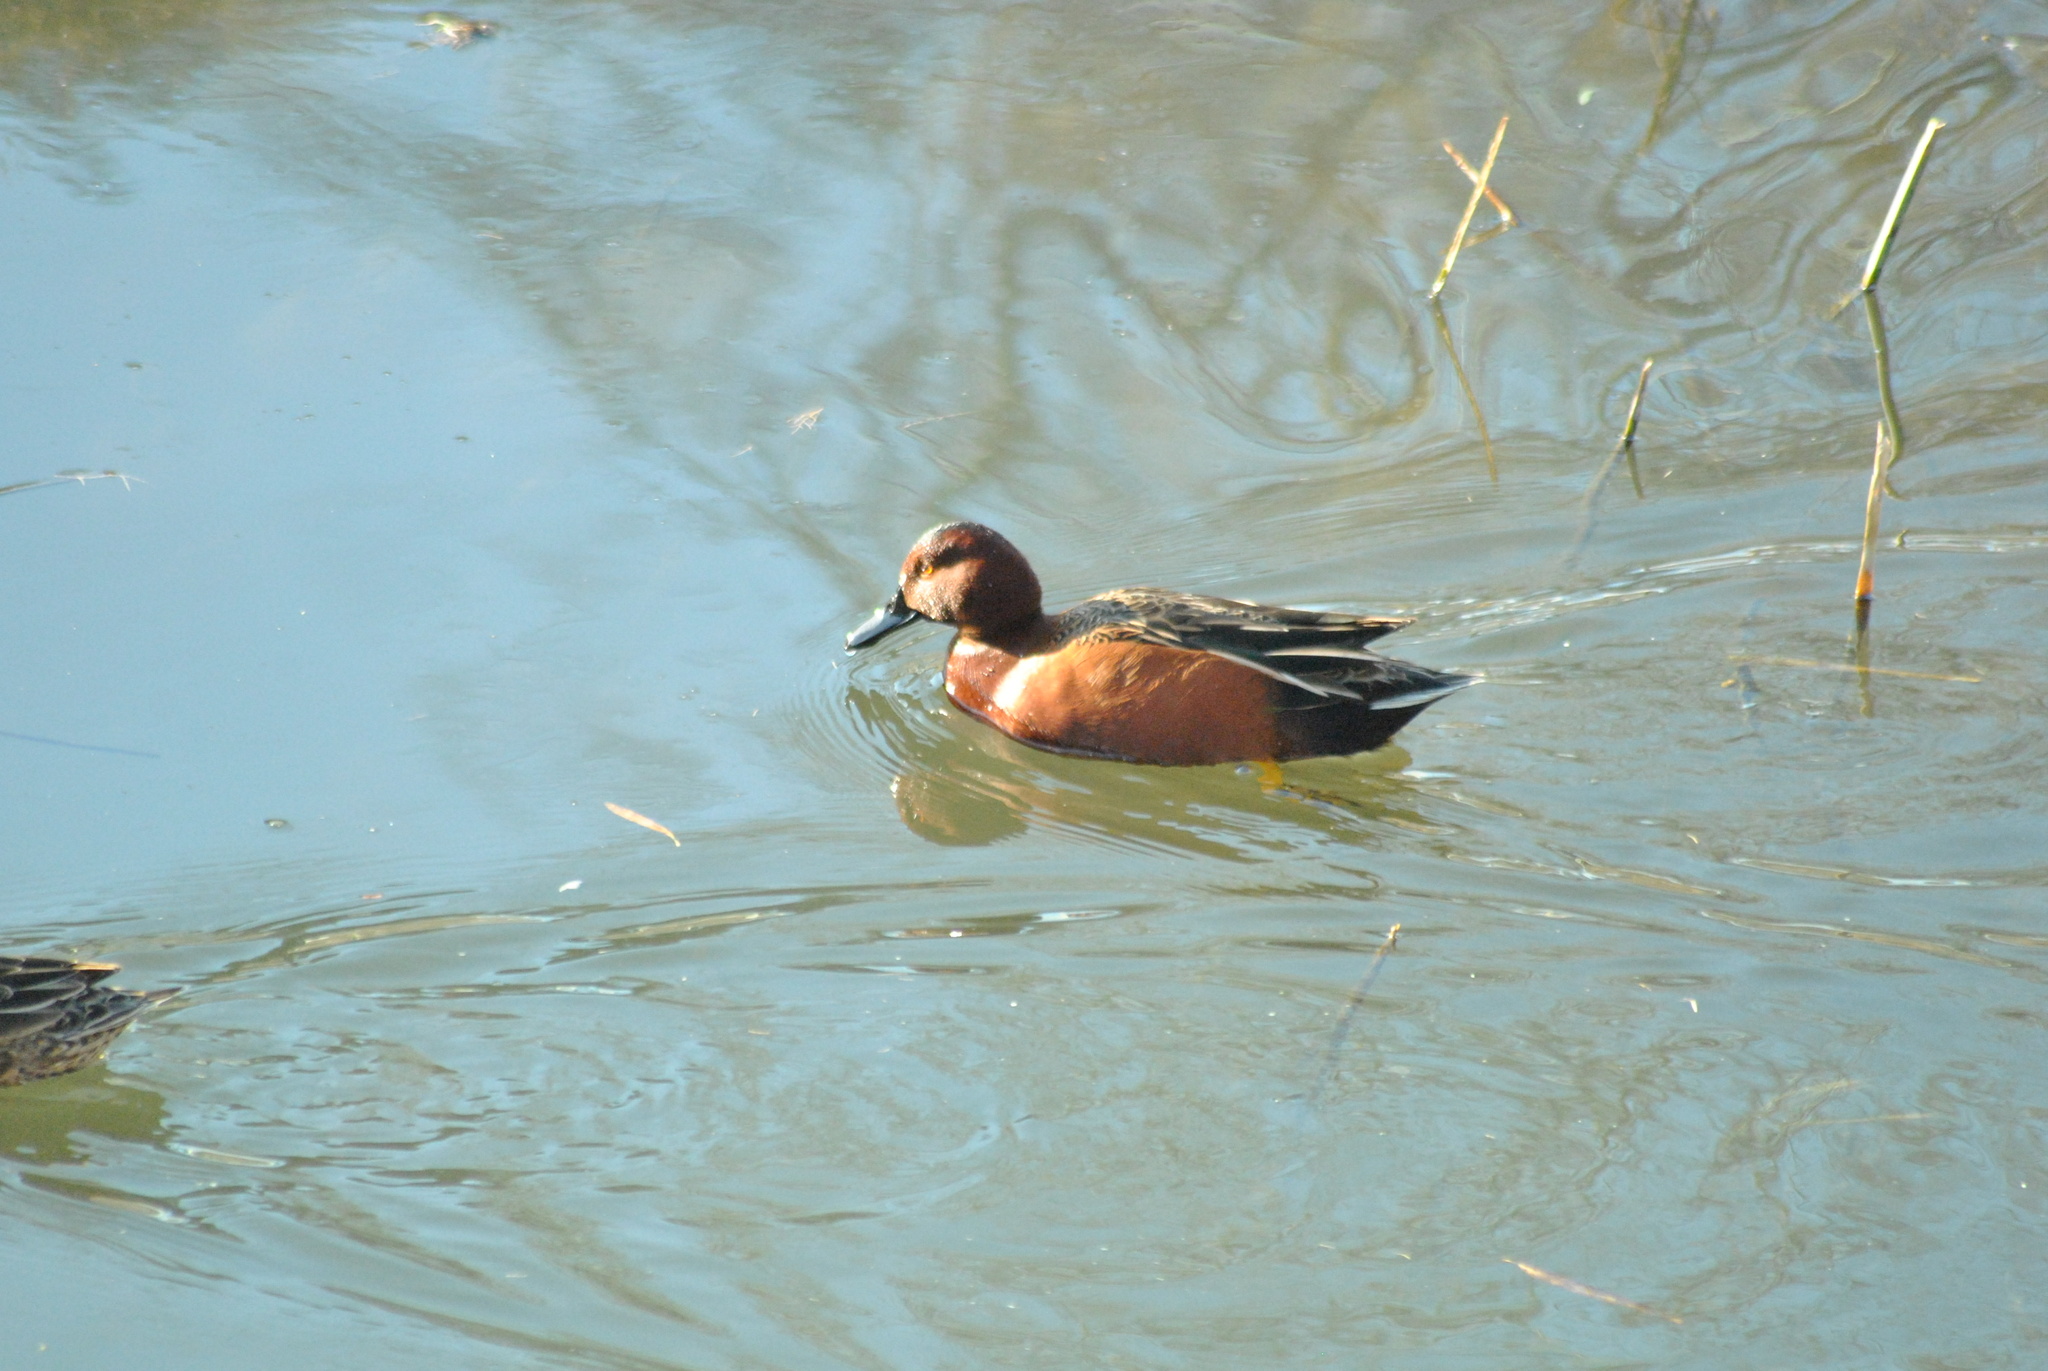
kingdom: Animalia
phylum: Chordata
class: Aves
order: Anseriformes
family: Anatidae
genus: Spatula
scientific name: Spatula cyanoptera
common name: Cinnamon teal
